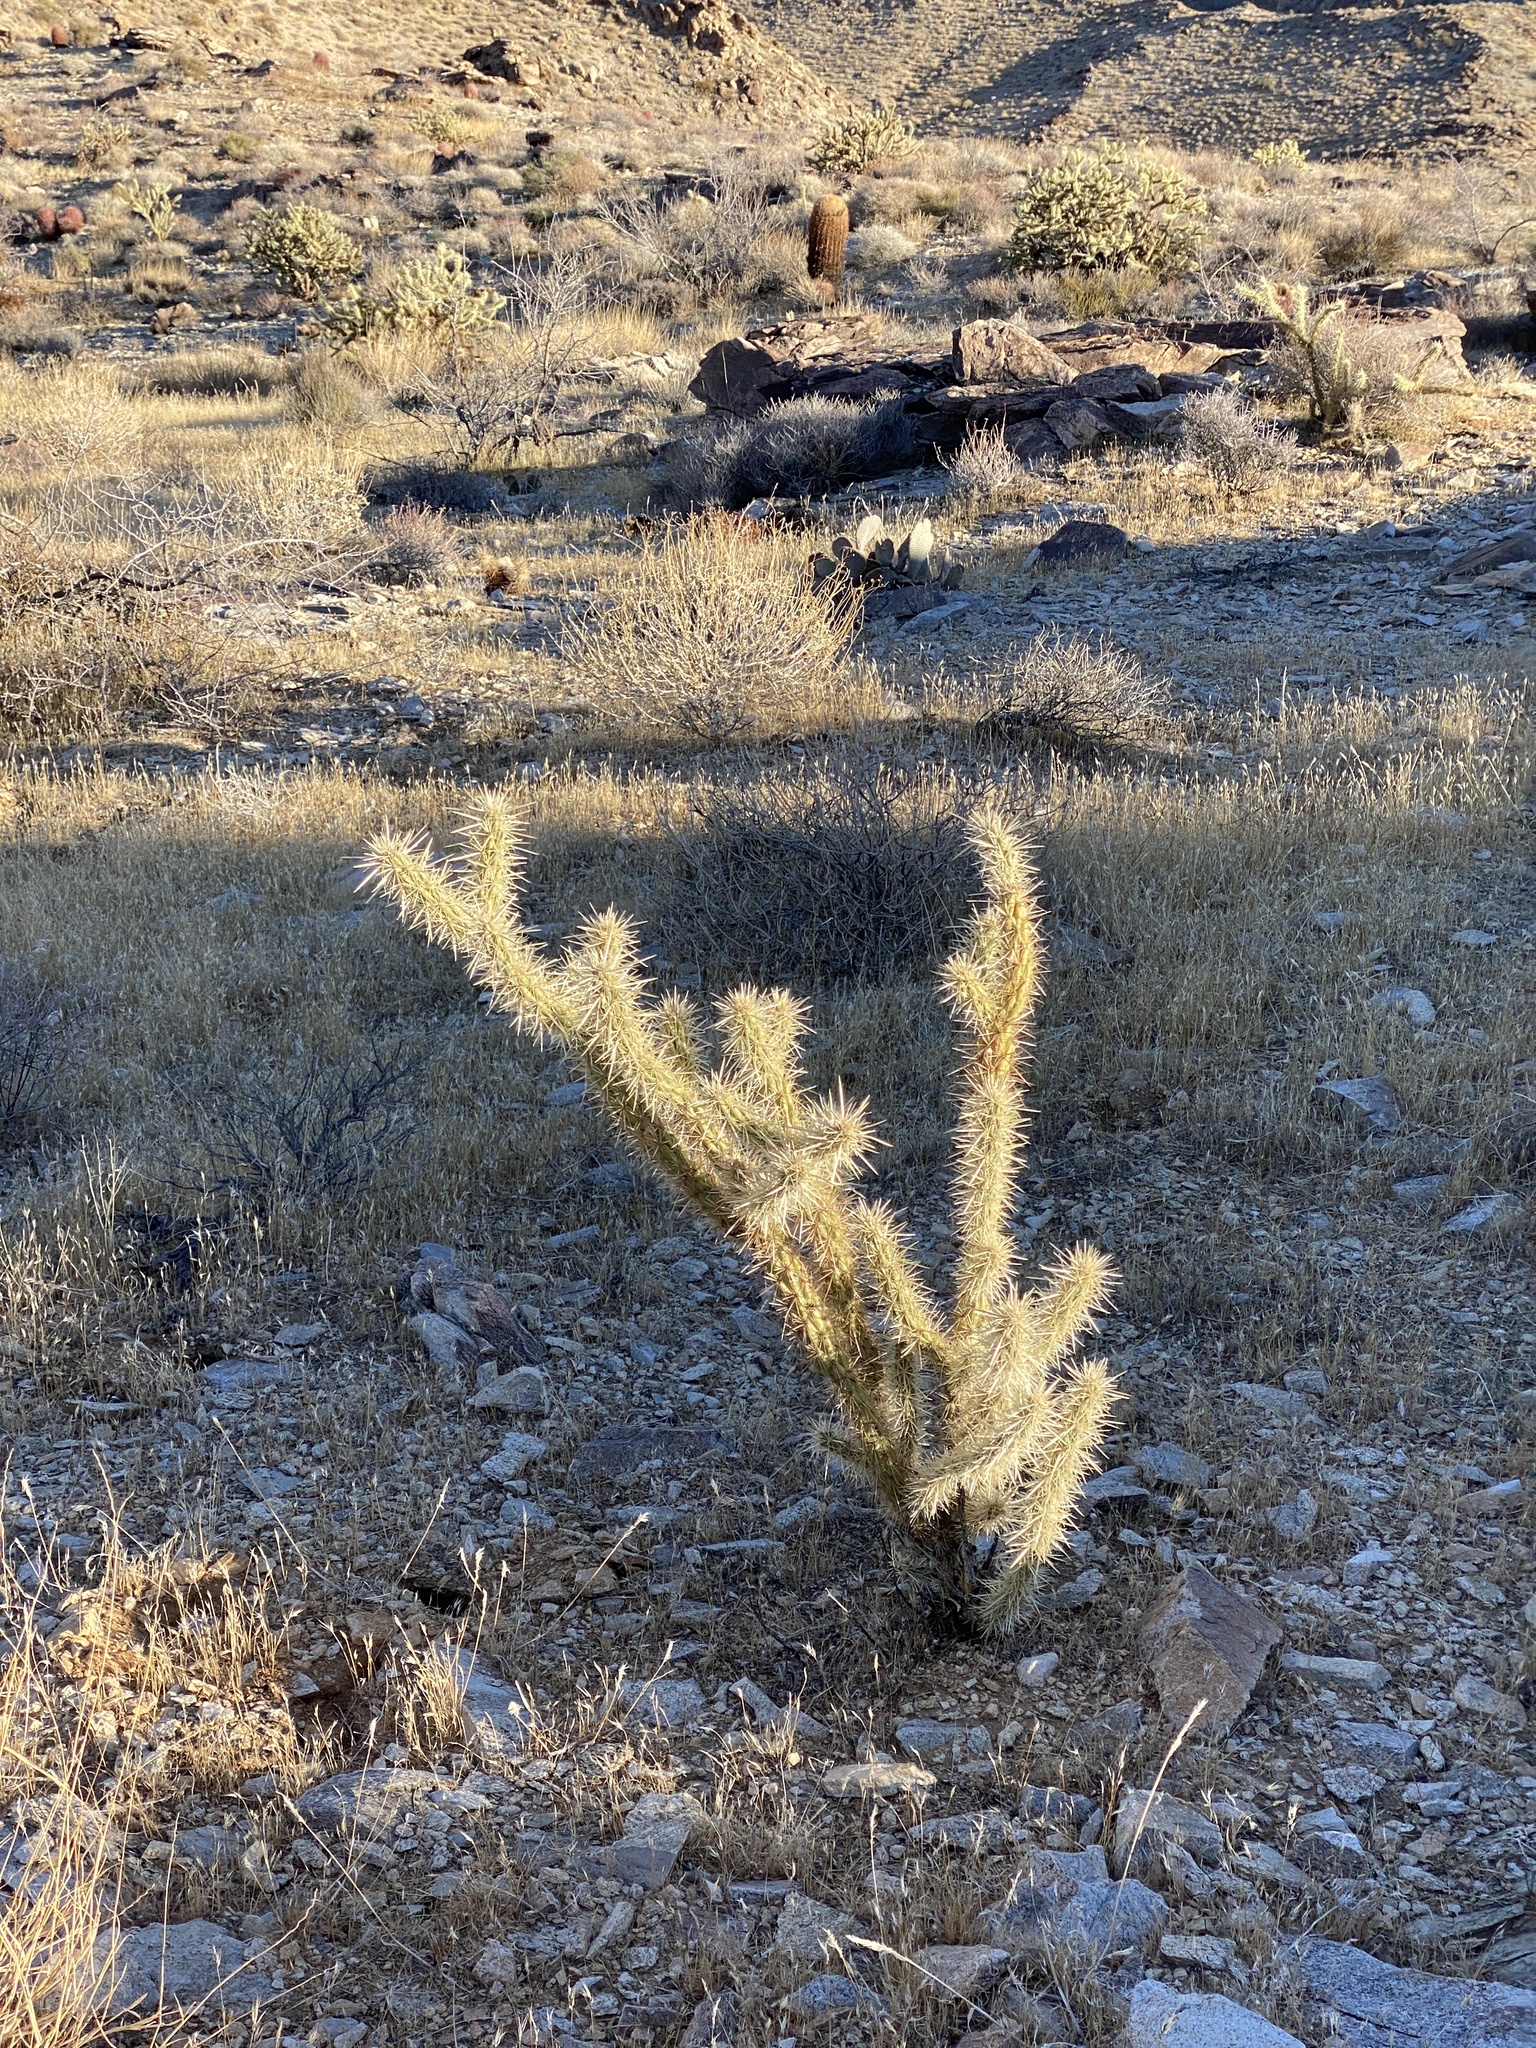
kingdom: Plantae
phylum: Tracheophyta
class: Magnoliopsida
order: Caryophyllales
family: Cactaceae
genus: Cylindropuntia
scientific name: Cylindropuntia acanthocarpa
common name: Buckhorn cholla
